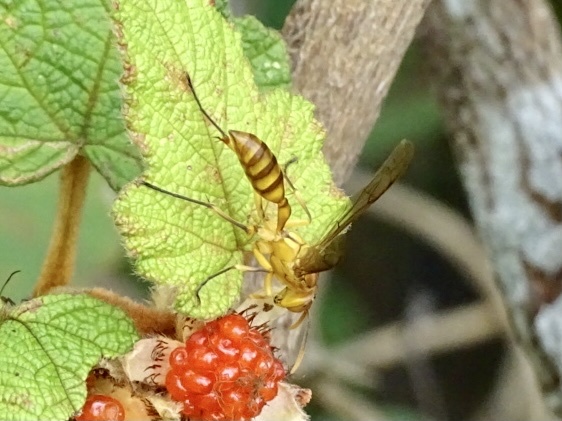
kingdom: Animalia
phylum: Arthropoda
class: Insecta
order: Hymenoptera
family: Vespidae
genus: Parapolybia
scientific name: Parapolybia indica
